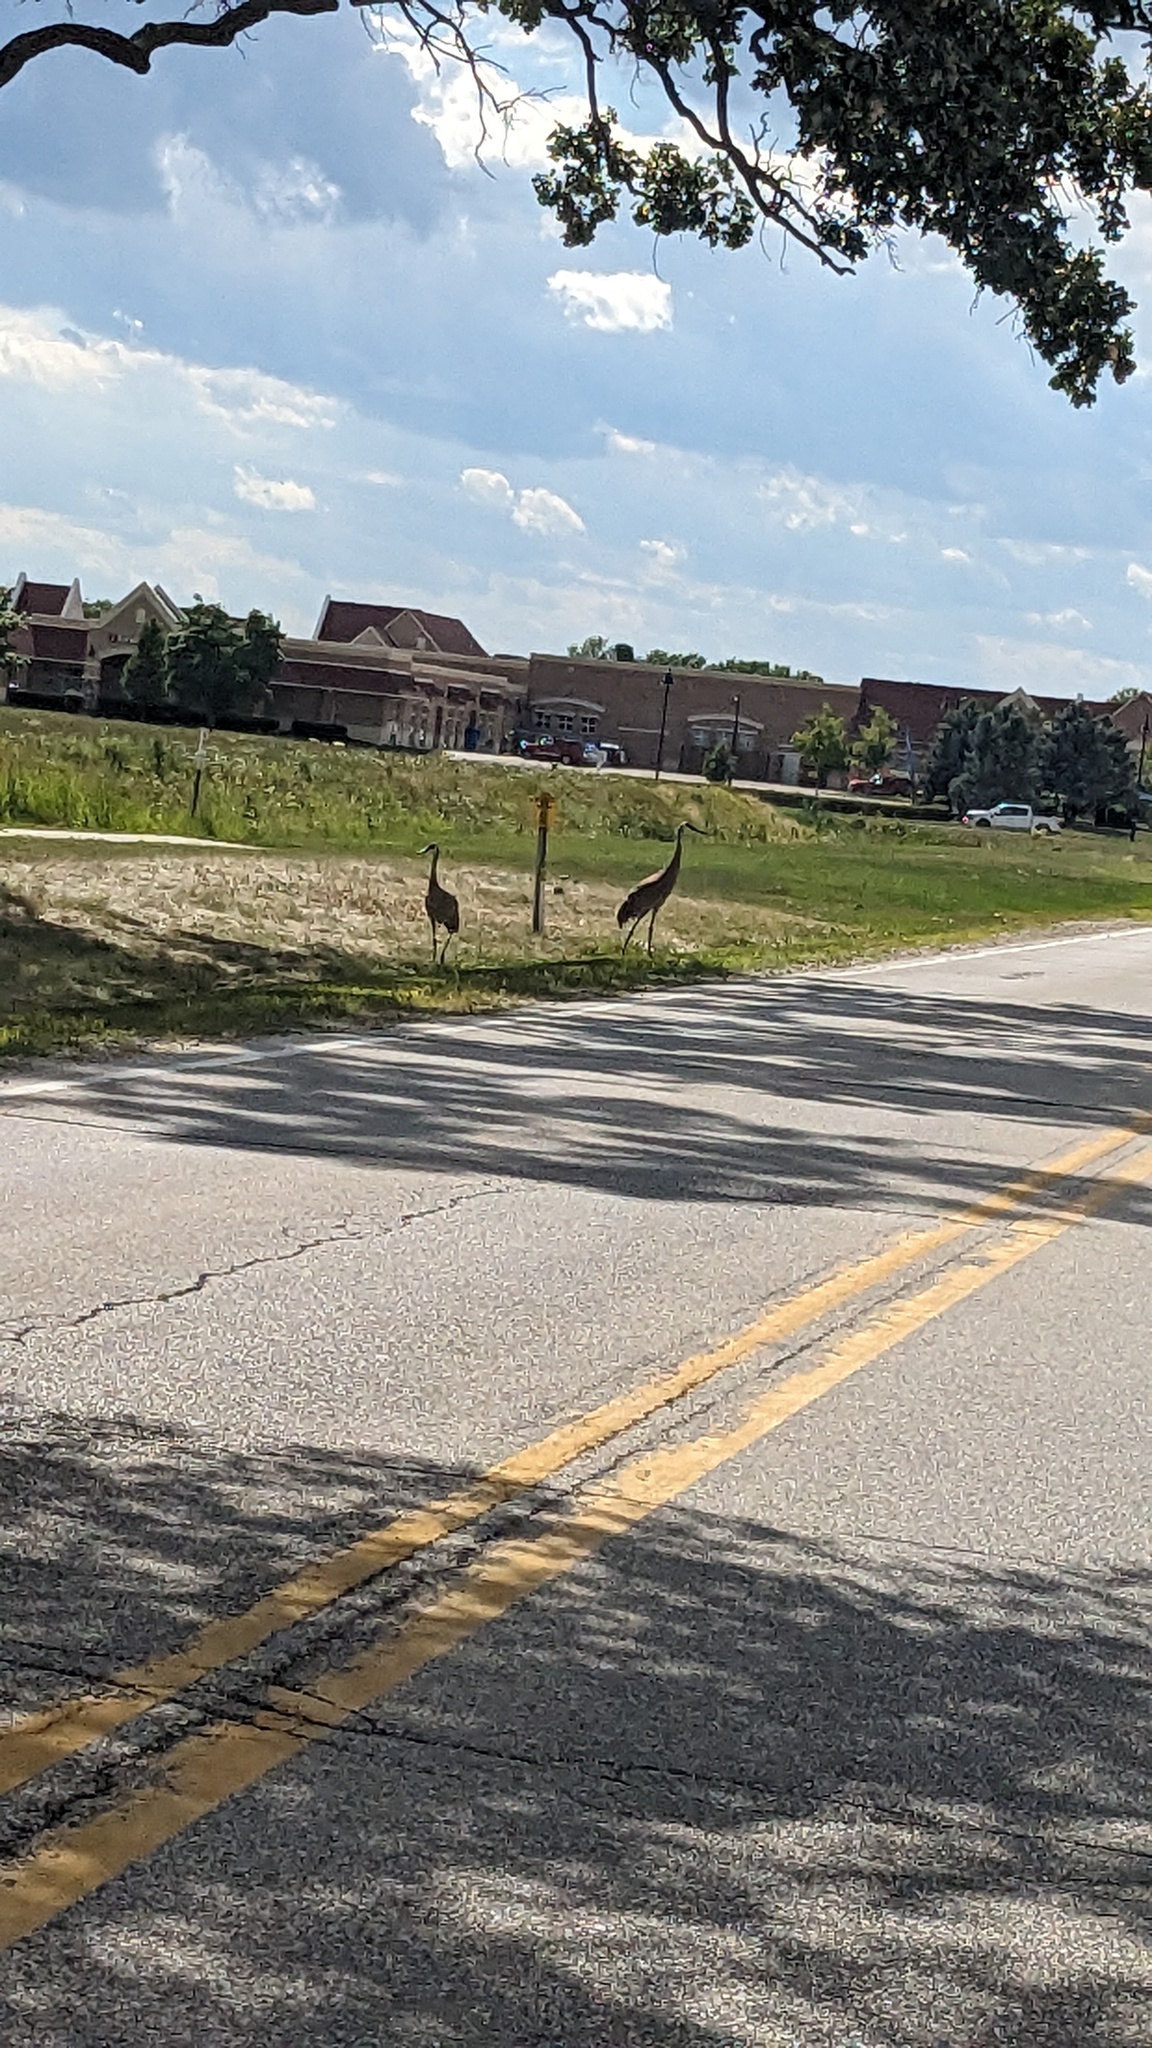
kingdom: Animalia
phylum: Chordata
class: Aves
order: Gruiformes
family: Gruidae
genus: Grus
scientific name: Grus canadensis
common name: Sandhill crane
